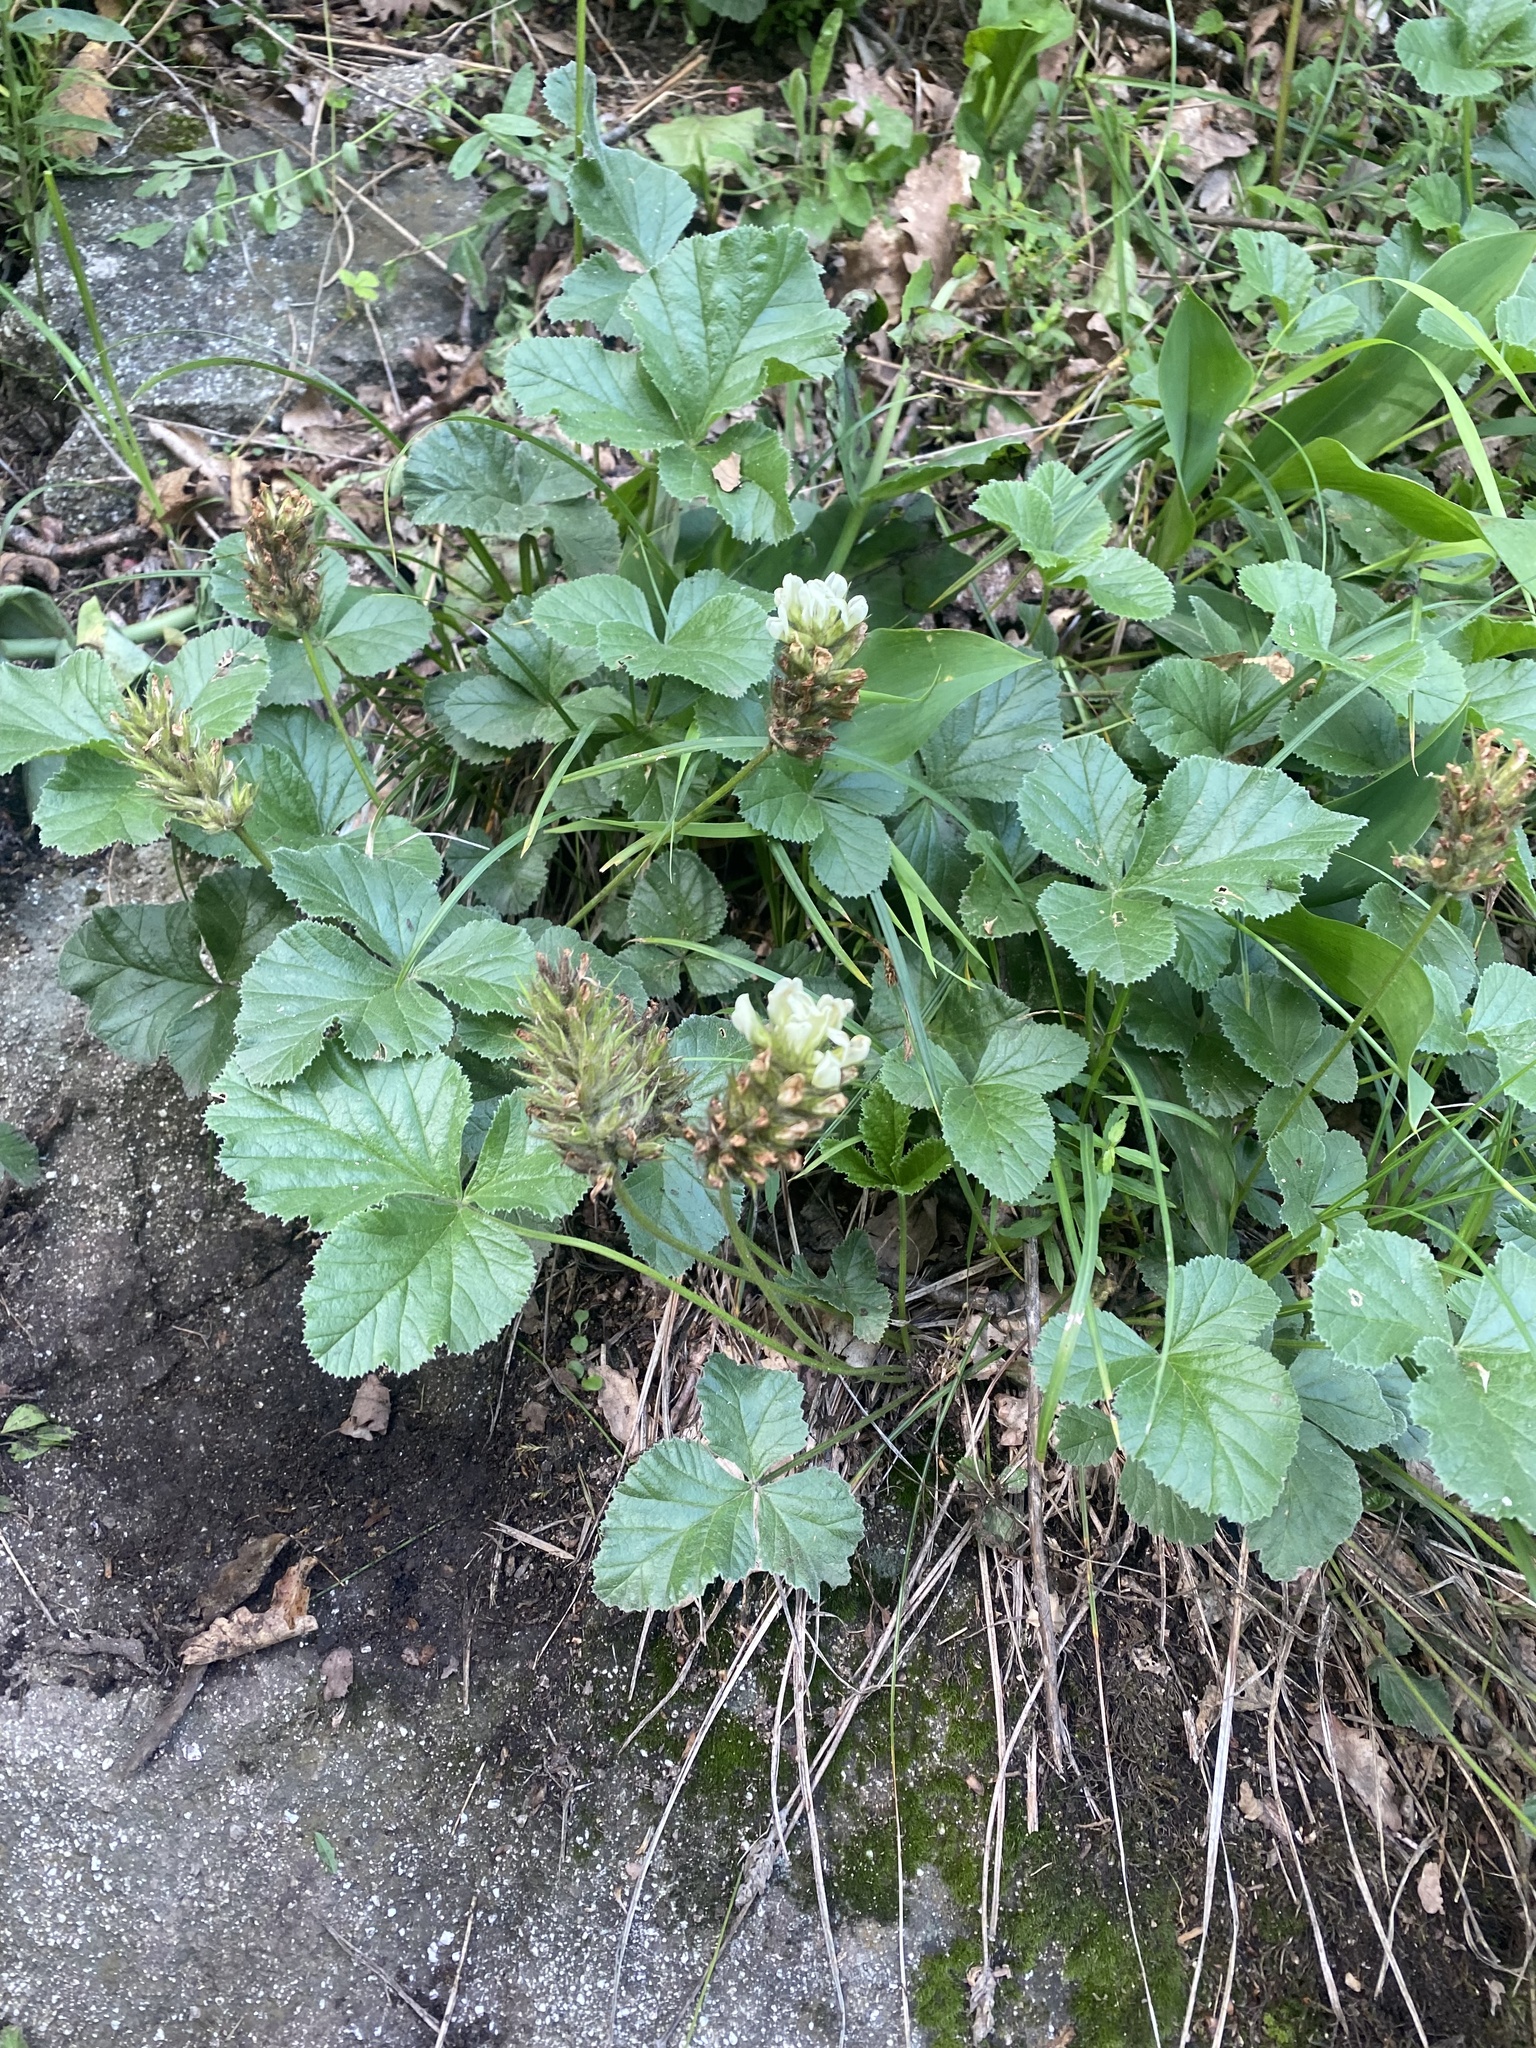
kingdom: Plantae
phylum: Tracheophyta
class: Magnoliopsida
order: Fabales
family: Fabaceae
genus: Kartalinia
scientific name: Kartalinia acaulis
